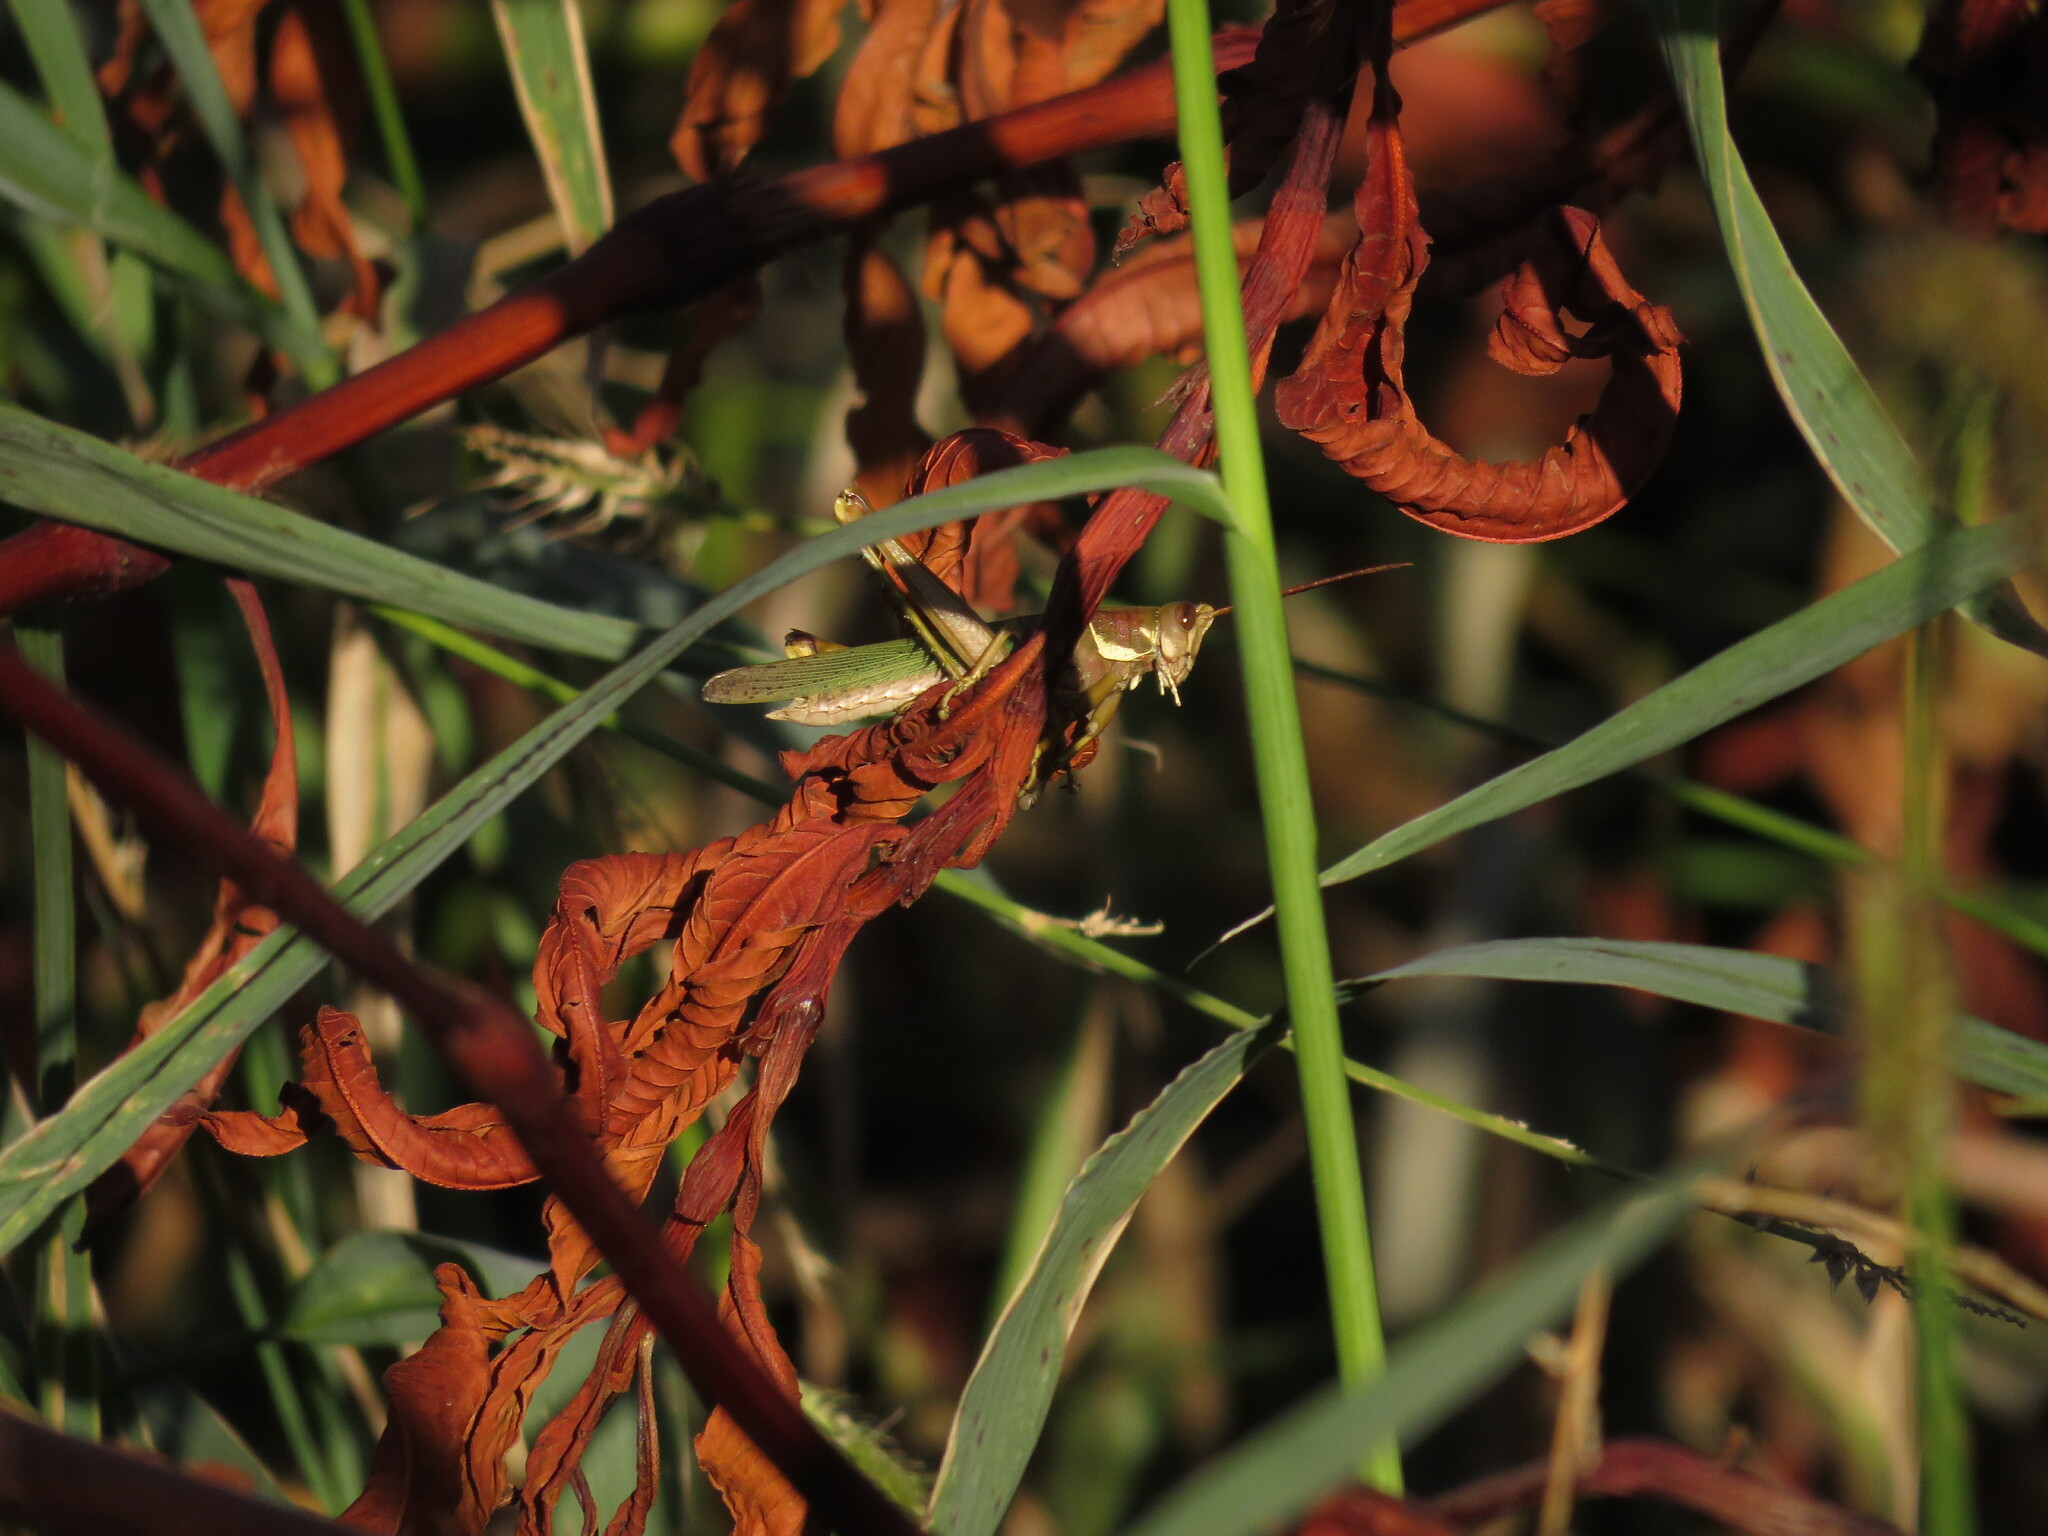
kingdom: Animalia
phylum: Arthropoda
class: Insecta
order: Orthoptera
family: Romaleidae
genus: Coryacris
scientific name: Coryacris angustipennis
